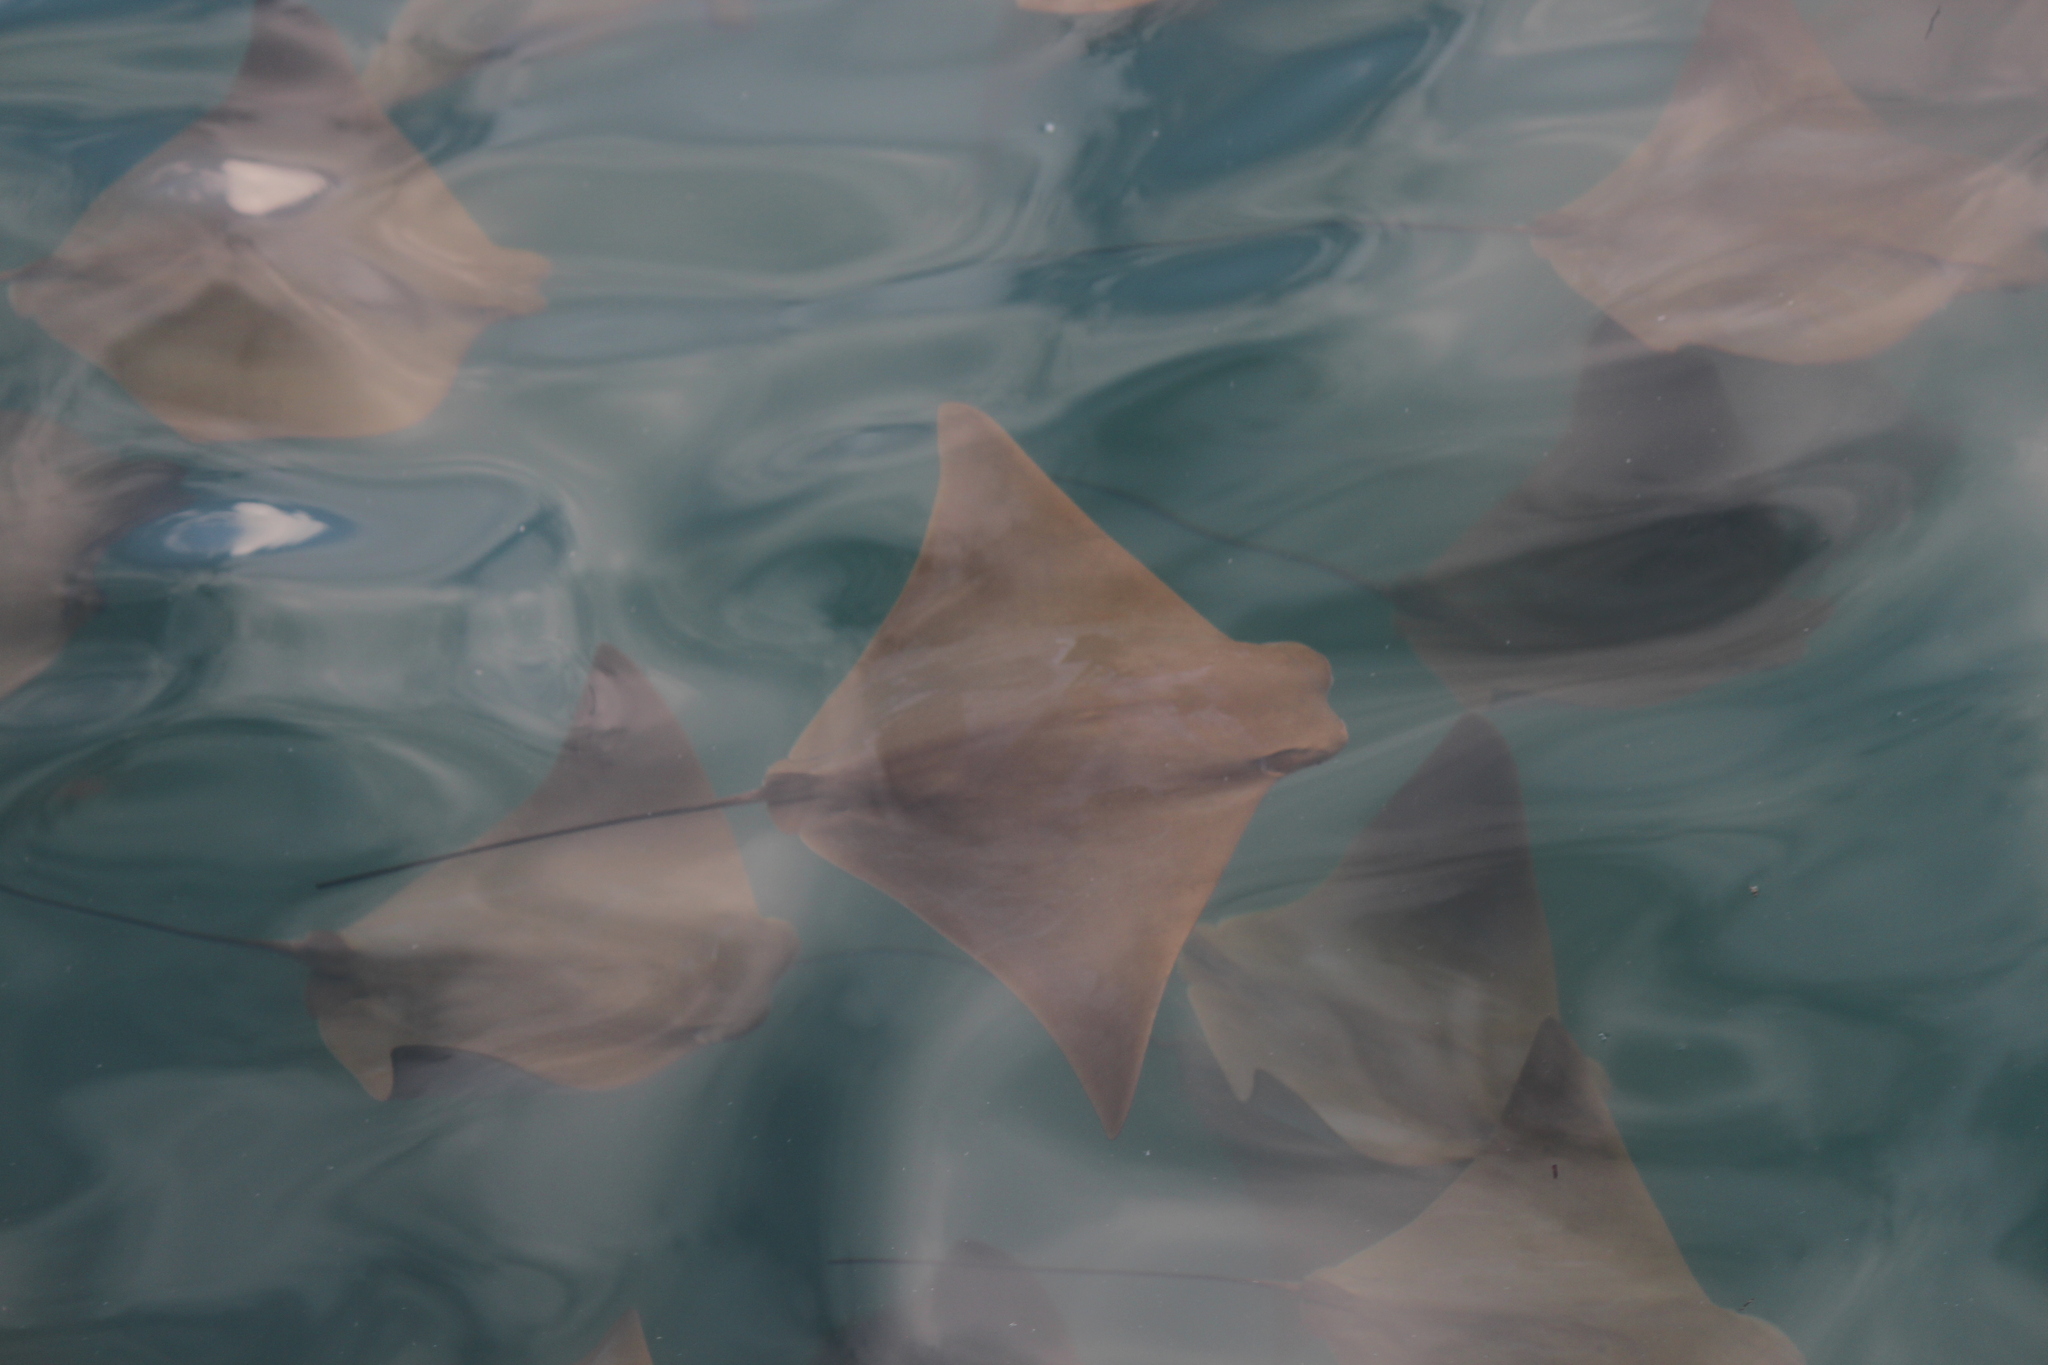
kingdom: Animalia
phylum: Chordata
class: Elasmobranchii
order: Myliobatiformes
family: Myliobatidae
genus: Rhinoptera
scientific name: Rhinoptera steindachneri
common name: Golden cownose ray
